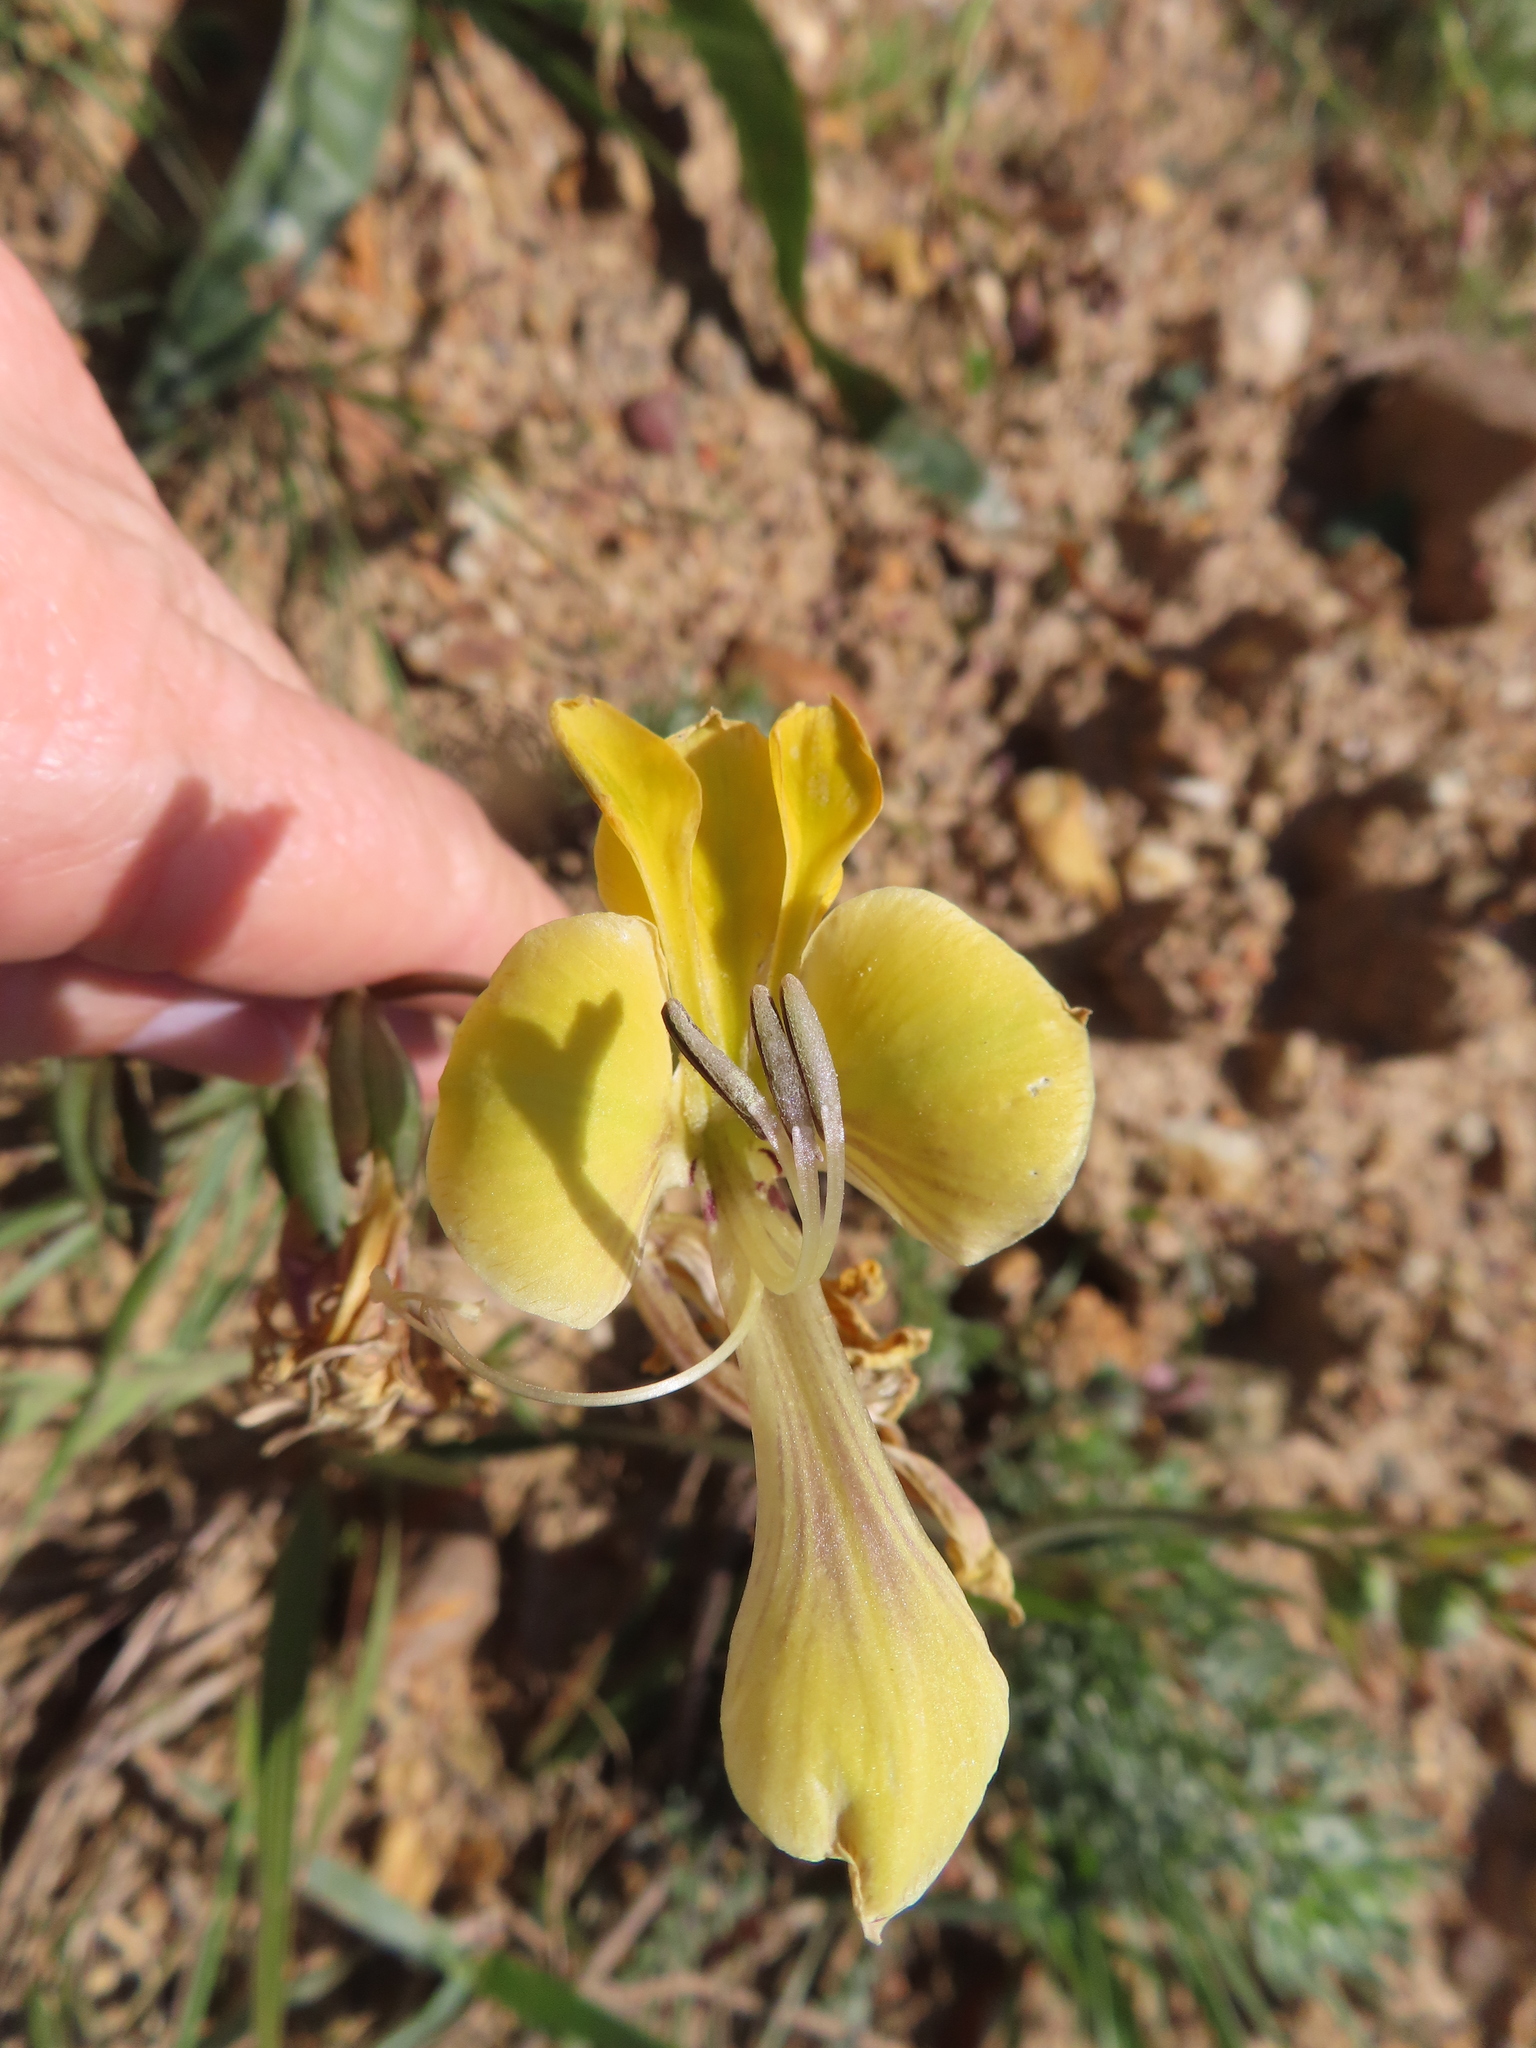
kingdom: Plantae
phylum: Tracheophyta
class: Liliopsida
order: Asparagales
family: Iridaceae
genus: Gladiolus
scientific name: Gladiolus virescens
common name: Yellow kalkoentjie
